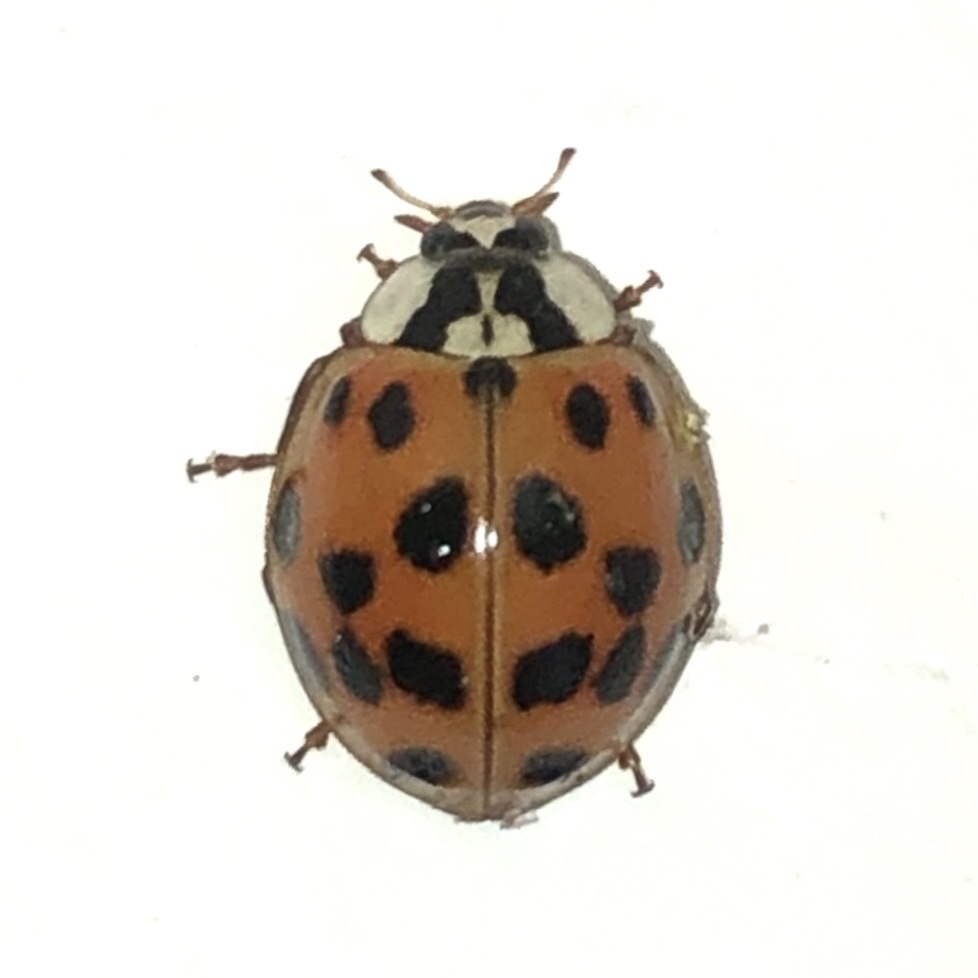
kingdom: Animalia
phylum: Arthropoda
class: Insecta
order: Coleoptera
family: Coccinellidae
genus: Harmonia
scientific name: Harmonia axyridis
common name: Harlequin ladybird
